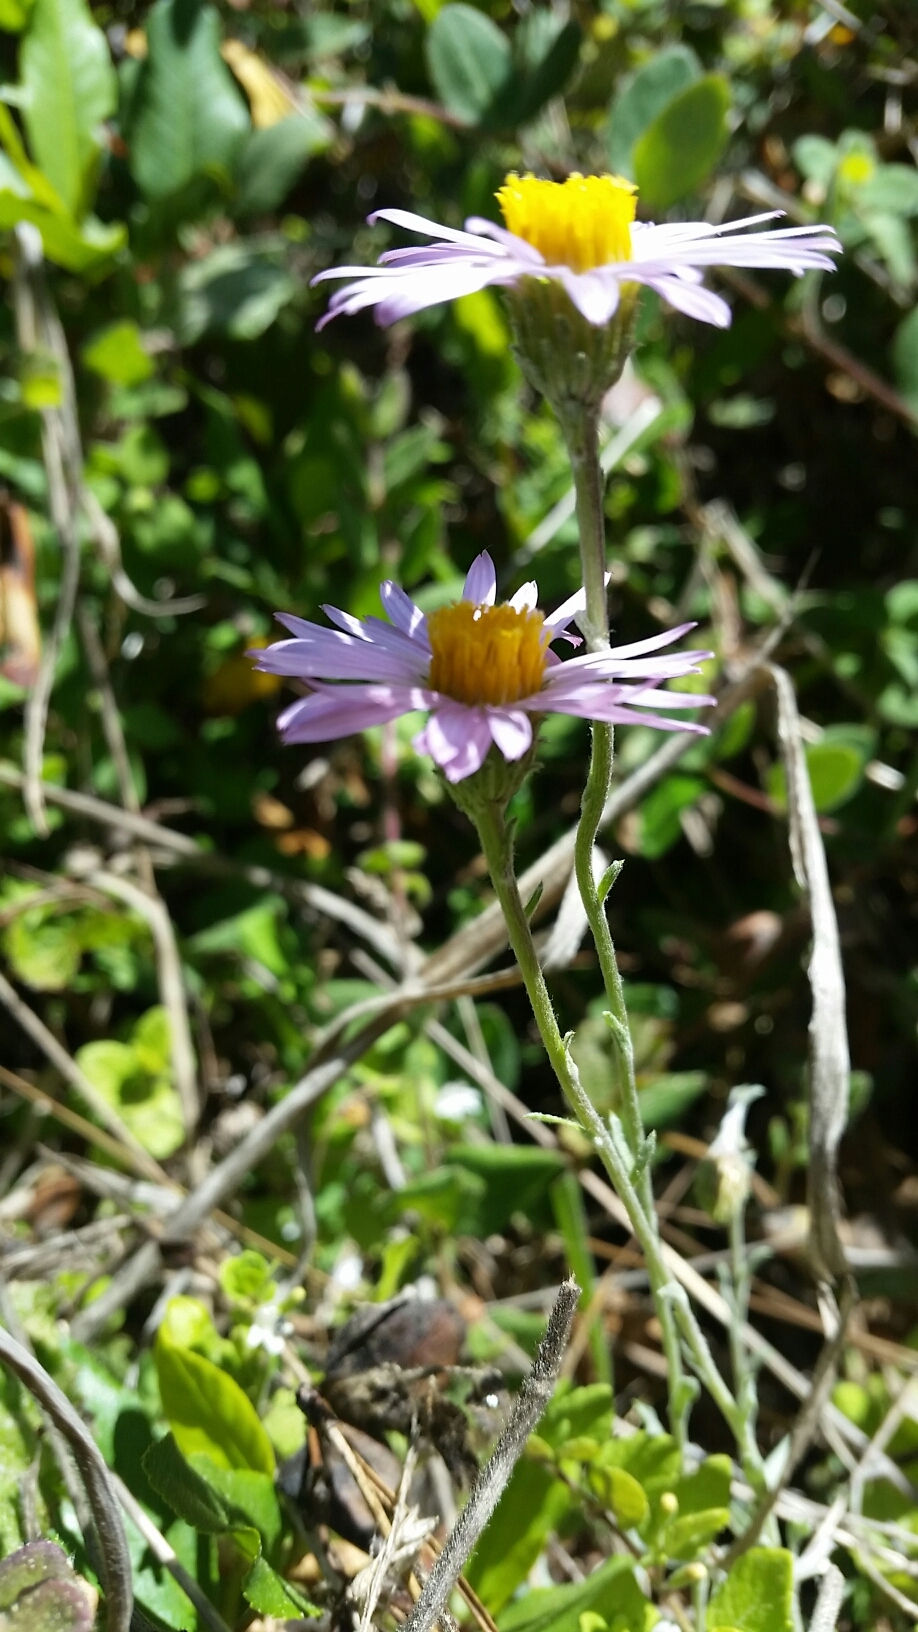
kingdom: Plantae
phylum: Tracheophyta
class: Magnoliopsida
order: Asterales
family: Asteraceae
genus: Corethrogyne
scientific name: Corethrogyne filaginifolia
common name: Sand-aster
